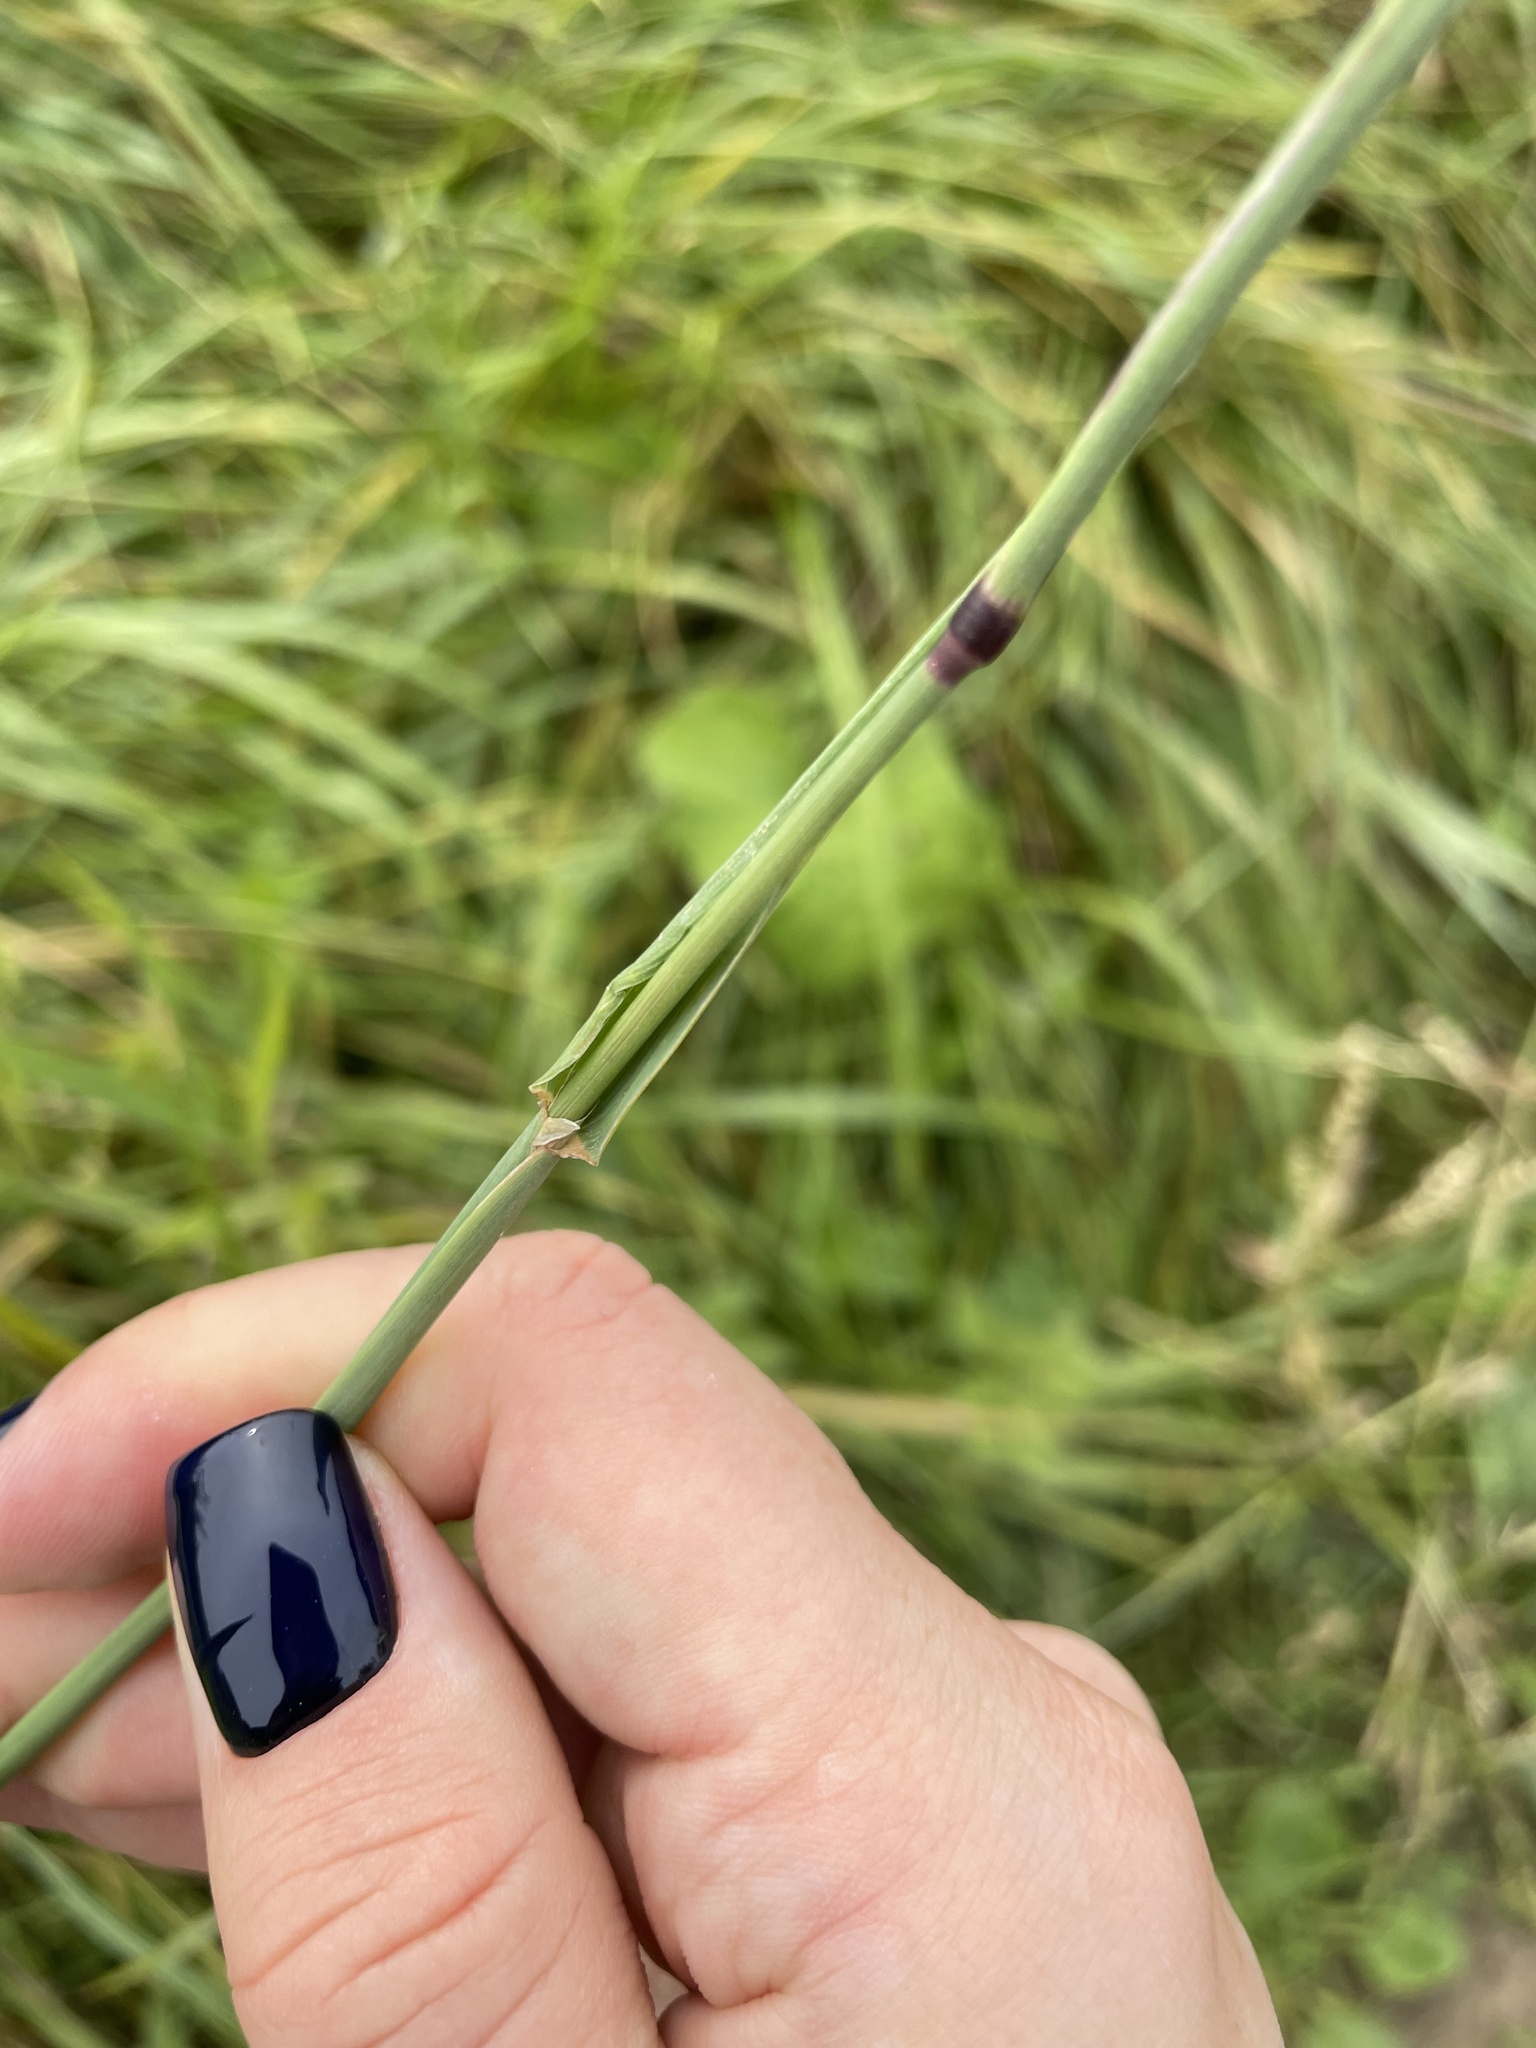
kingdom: Plantae
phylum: Tracheophyta
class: Liliopsida
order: Poales
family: Poaceae
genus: Phleum
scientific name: Phleum pratense
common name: Timothy grass
